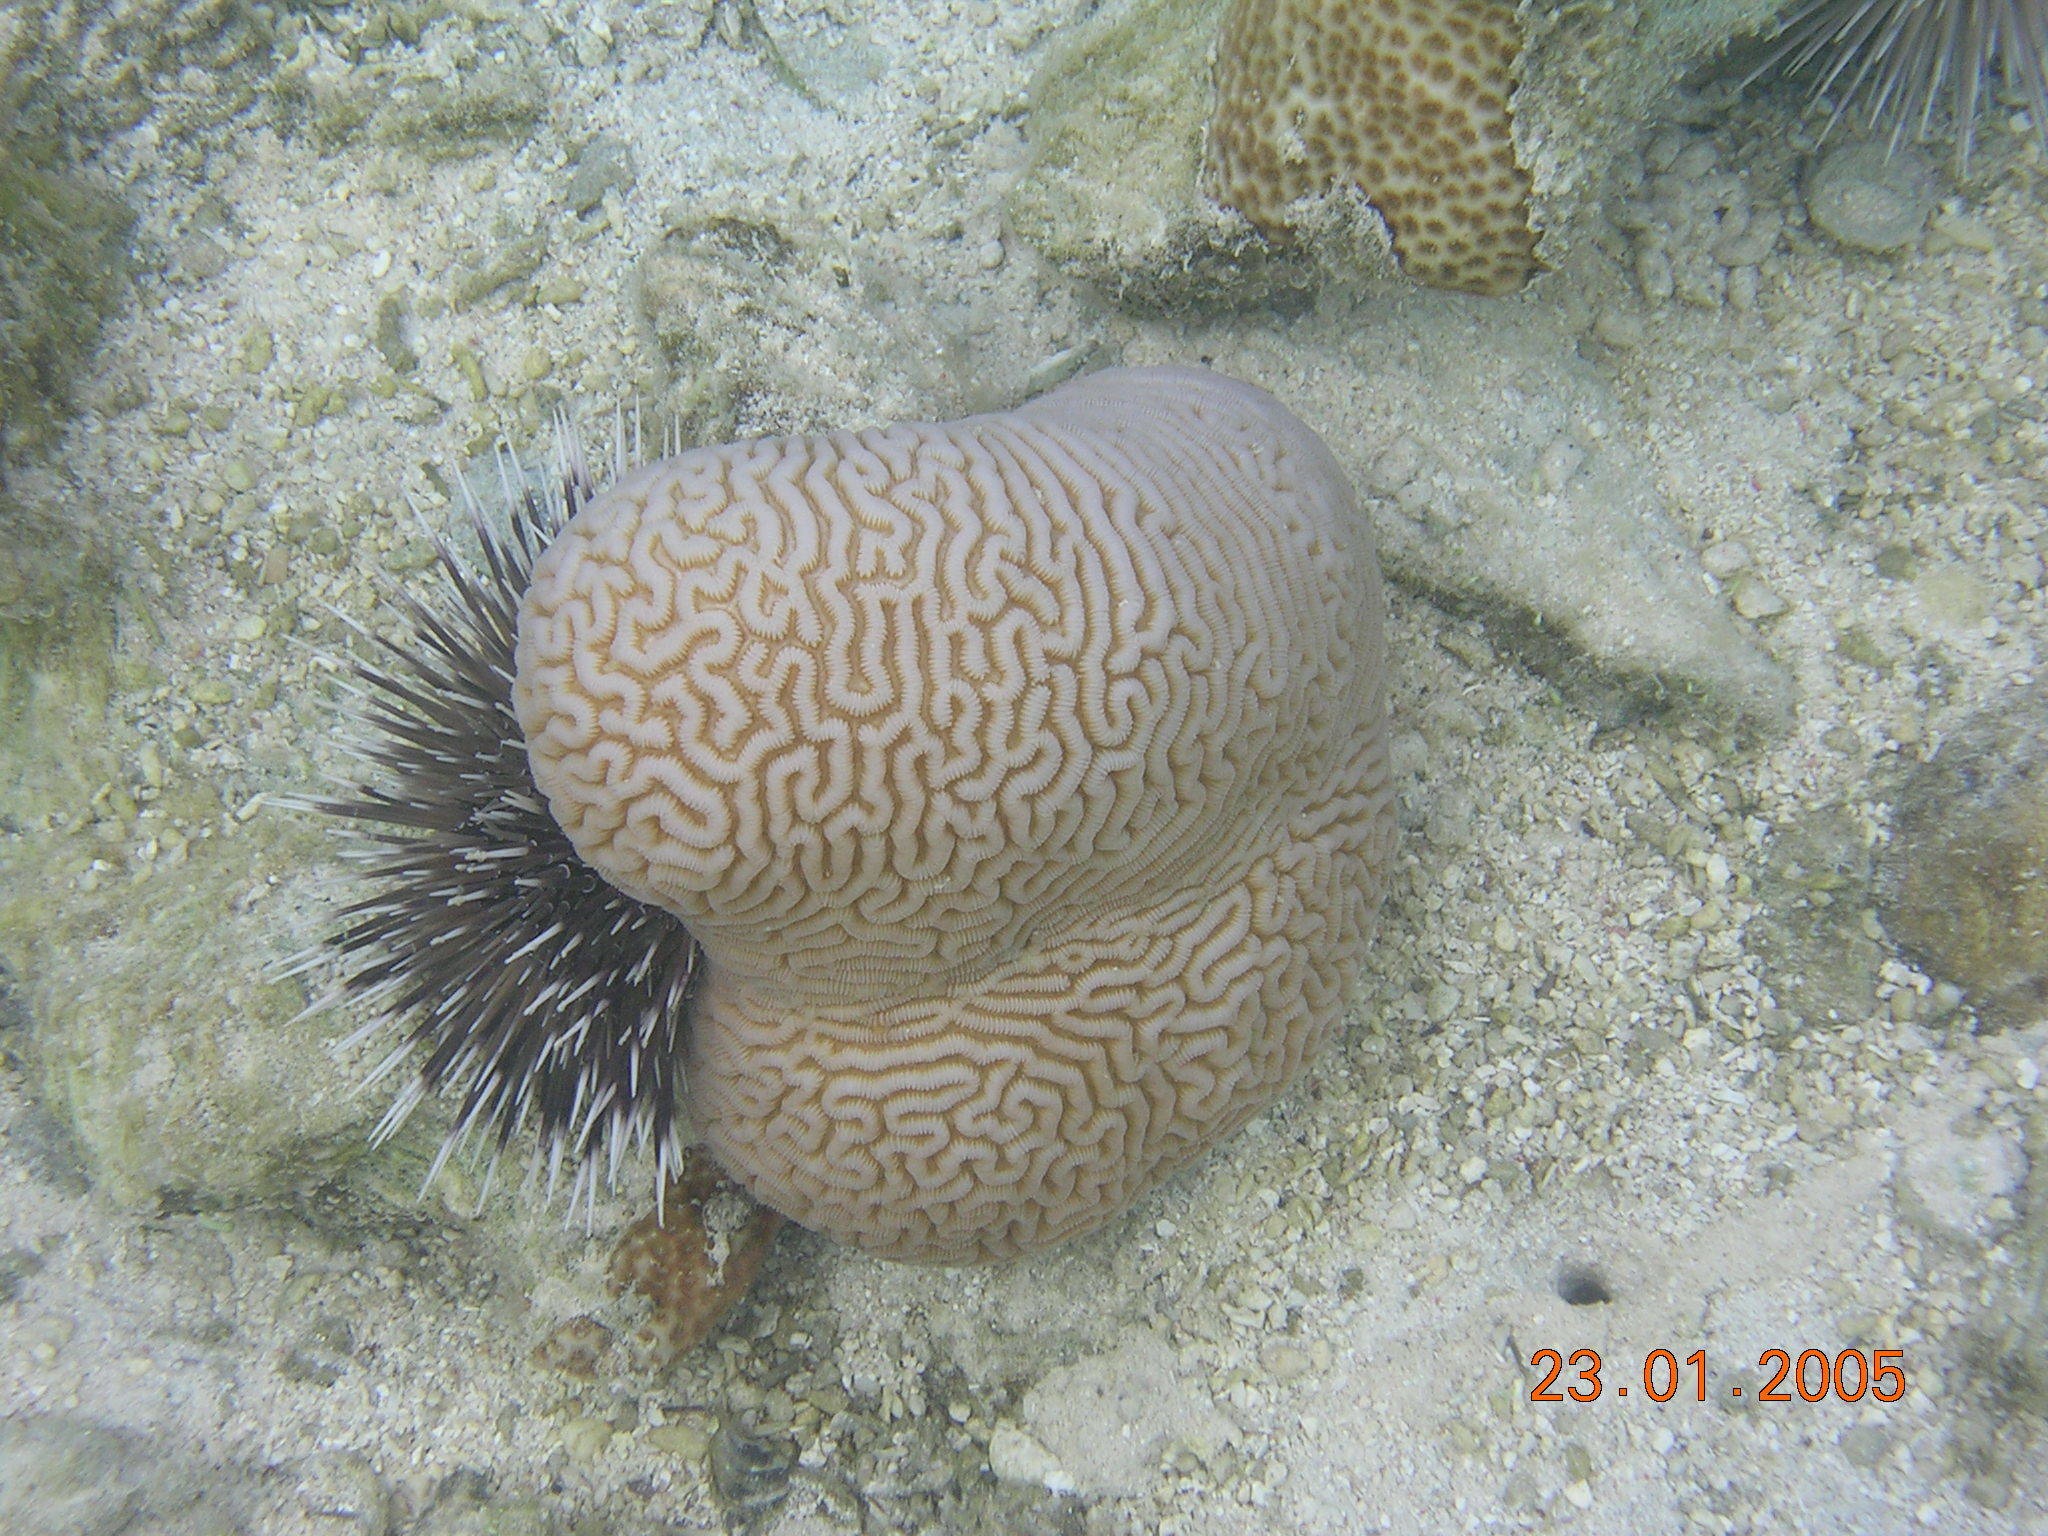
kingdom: Animalia
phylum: Cnidaria
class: Anthozoa
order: Scleractinia
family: Merulinidae
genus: Leptoria
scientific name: Leptoria phrygia
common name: Least valley coral
